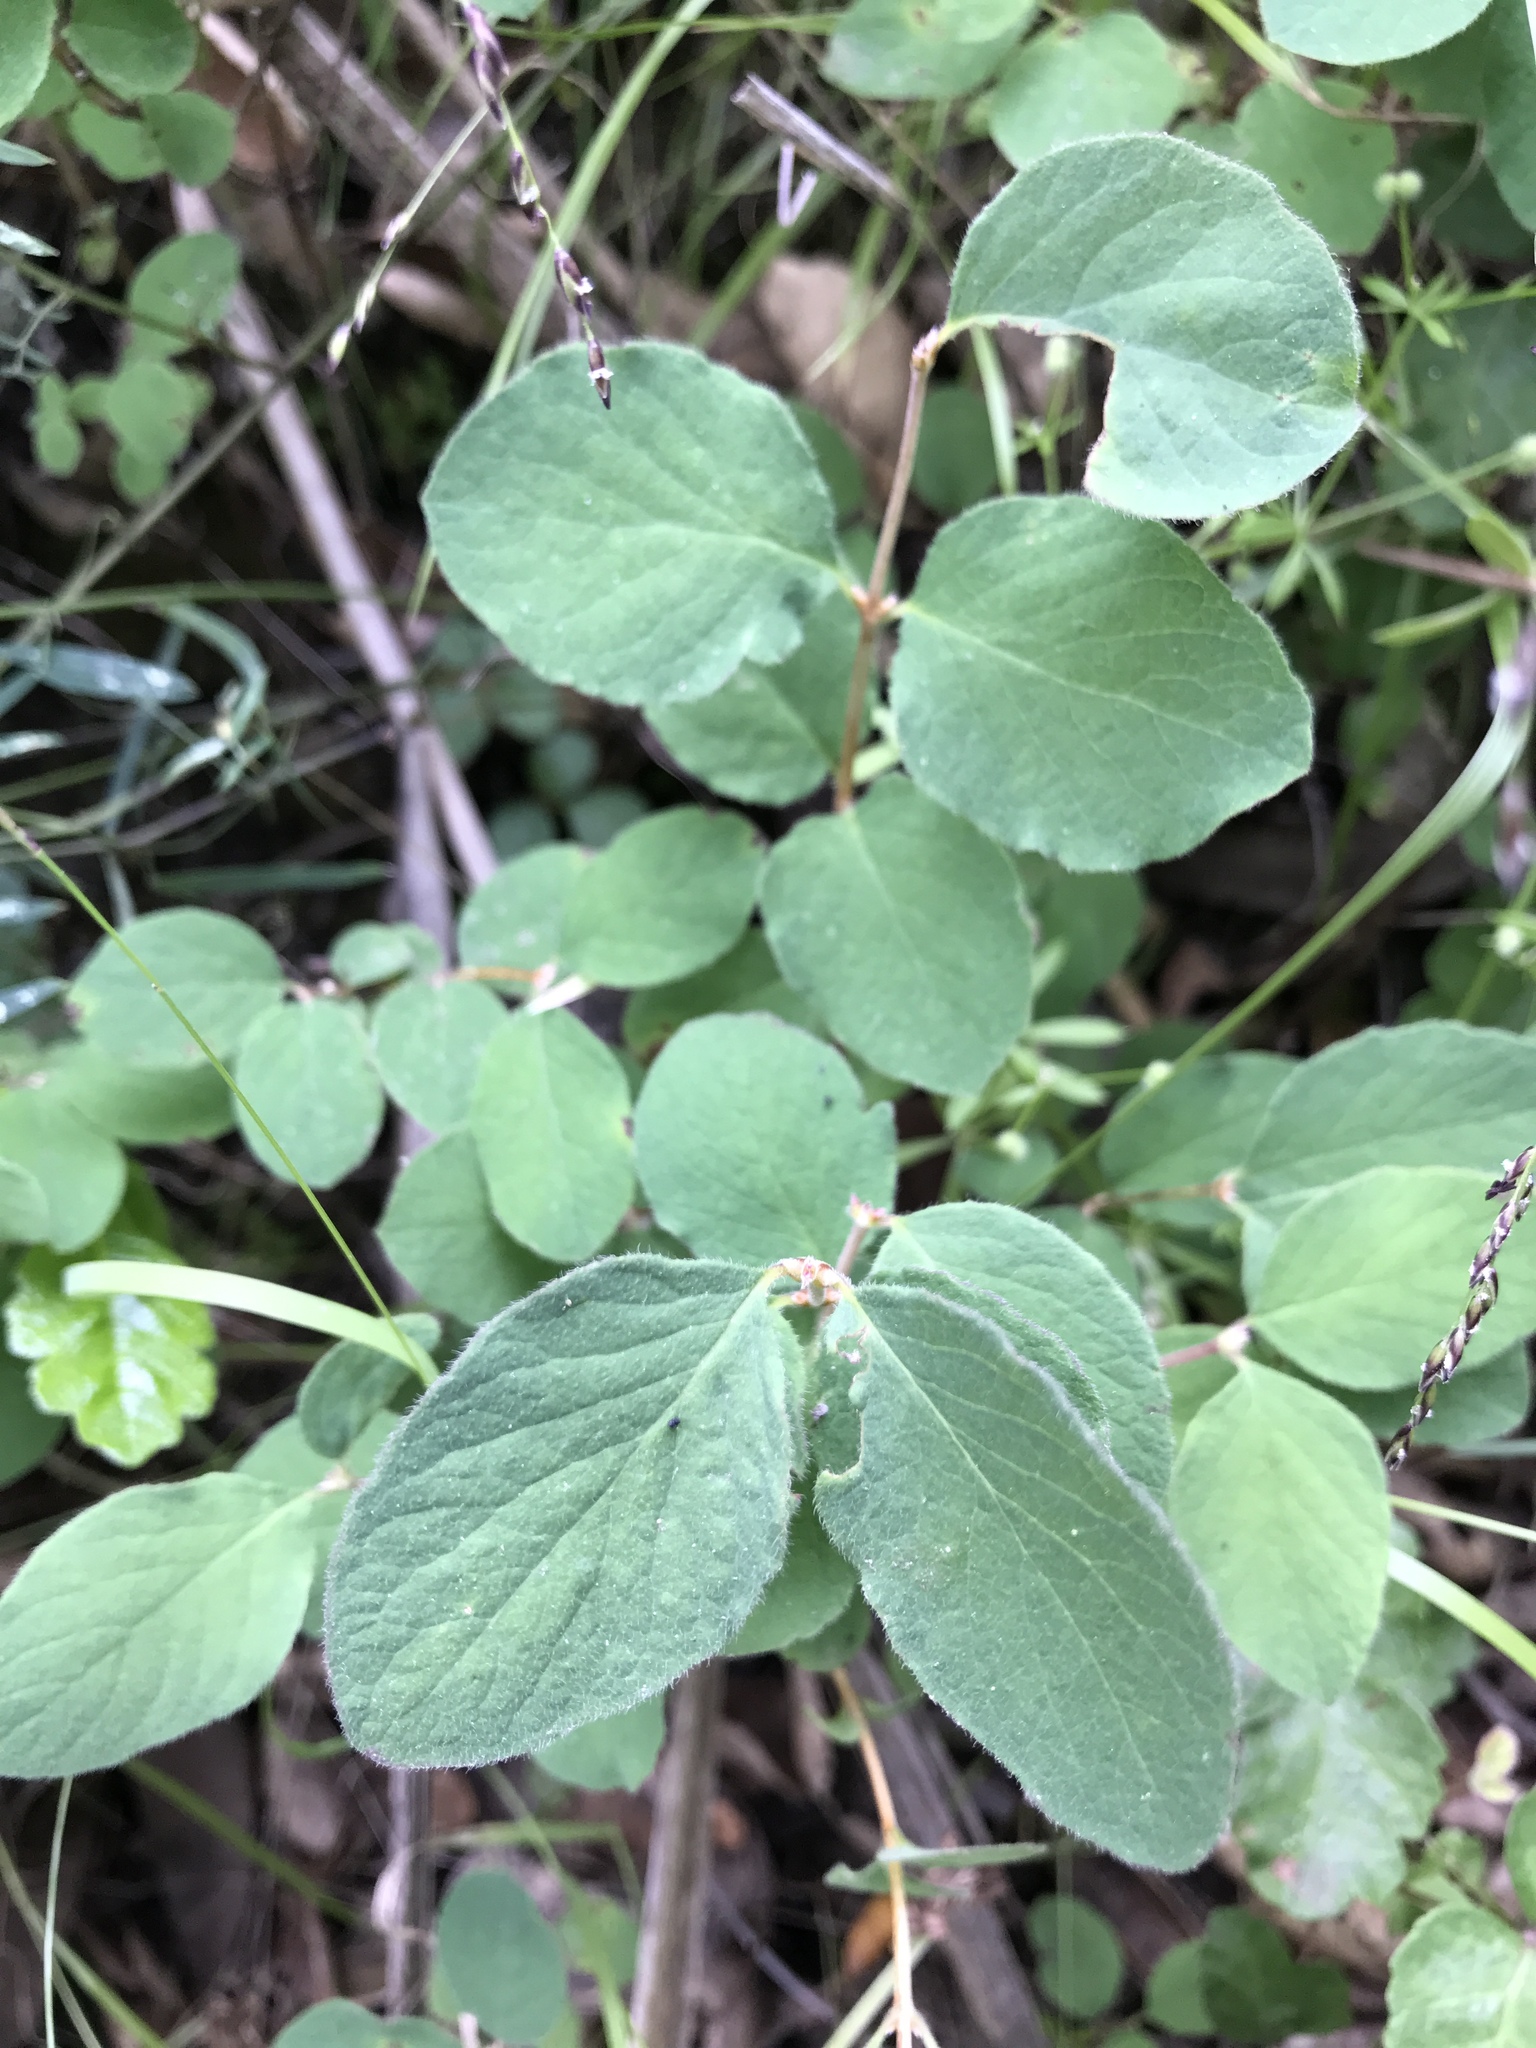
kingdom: Plantae
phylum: Tracheophyta
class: Magnoliopsida
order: Dipsacales
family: Caprifoliaceae
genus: Symphoricarpos
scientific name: Symphoricarpos mollis
